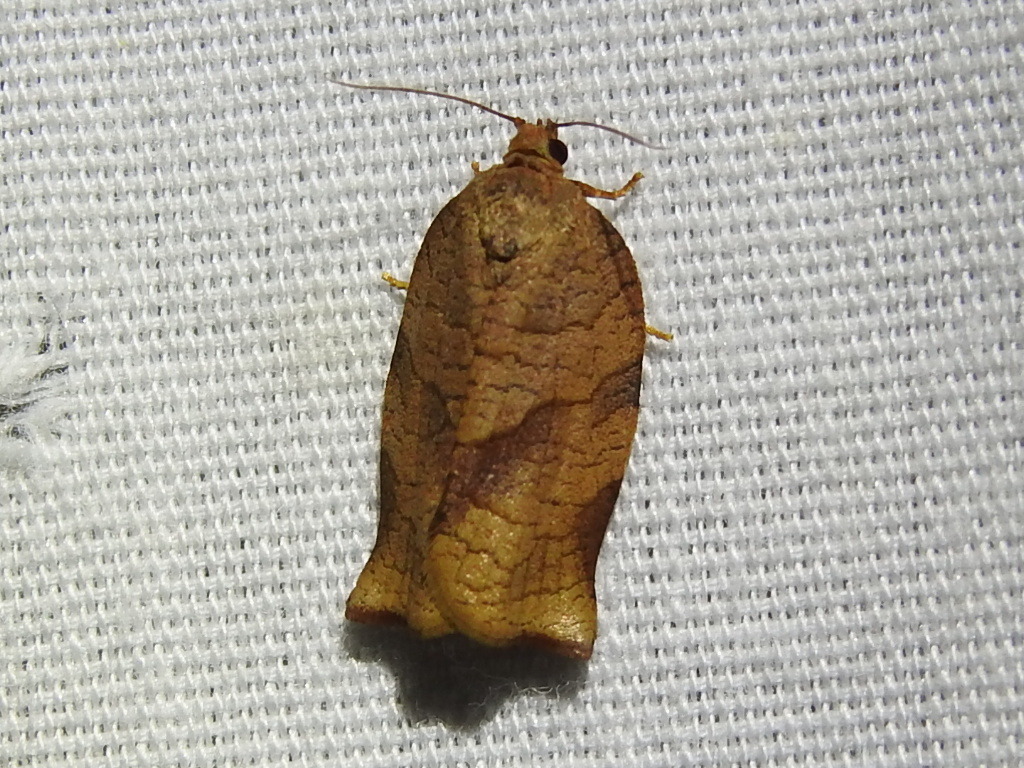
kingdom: Animalia
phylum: Arthropoda
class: Insecta
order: Lepidoptera
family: Tortricidae
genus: Choristoneura
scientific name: Choristoneura rosaceana
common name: Oblique-banded leafroller moth
